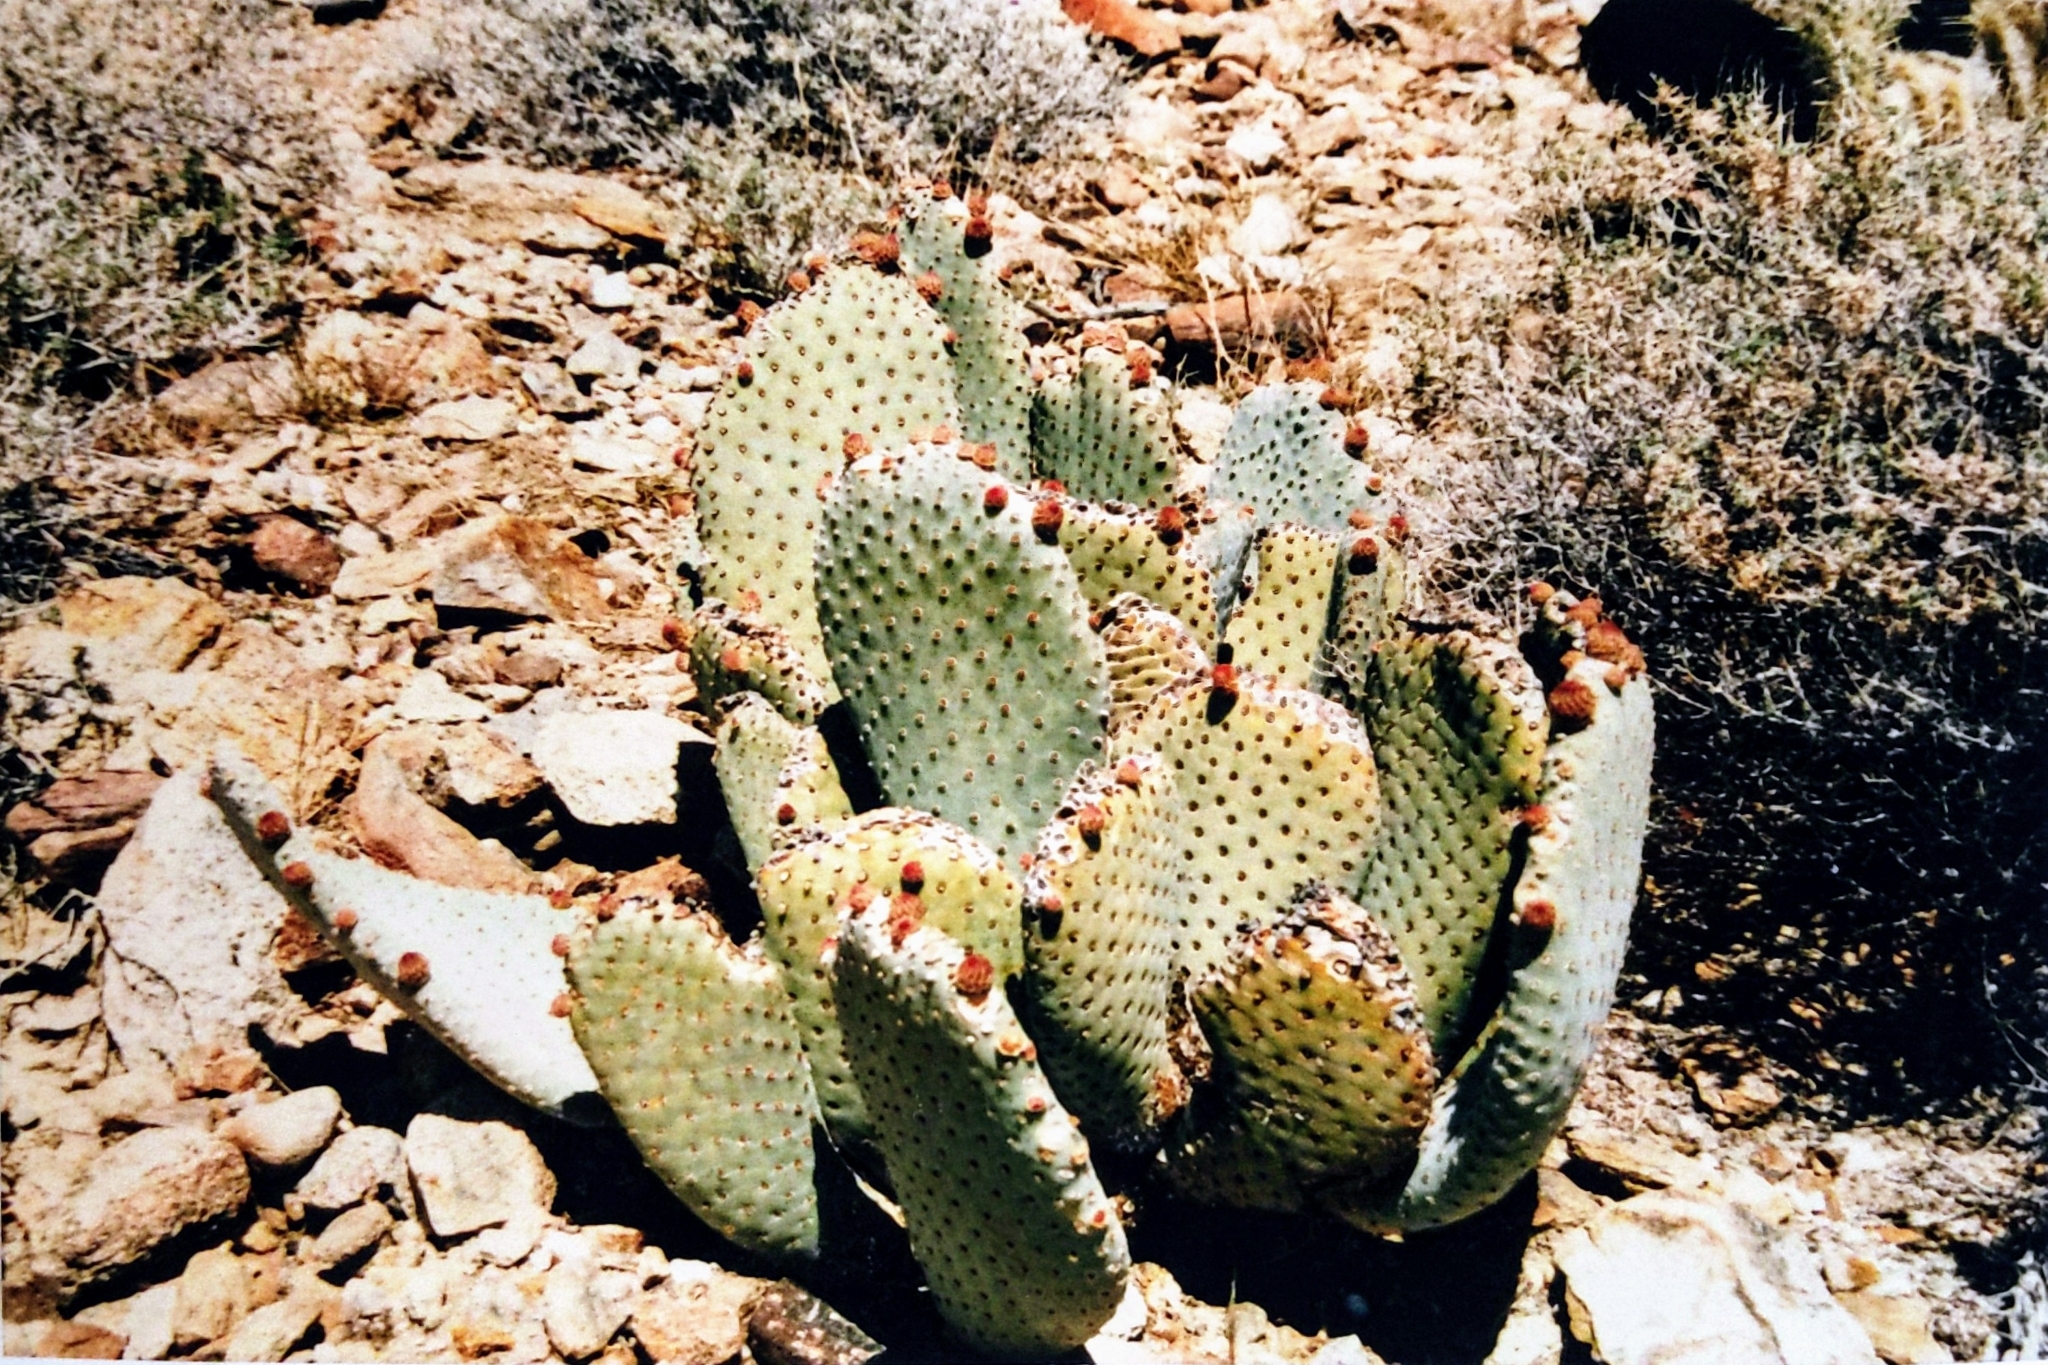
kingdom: Plantae
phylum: Tracheophyta
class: Magnoliopsida
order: Caryophyllales
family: Cactaceae
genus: Opuntia
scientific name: Opuntia basilaris
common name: Beavertail prickly-pear
